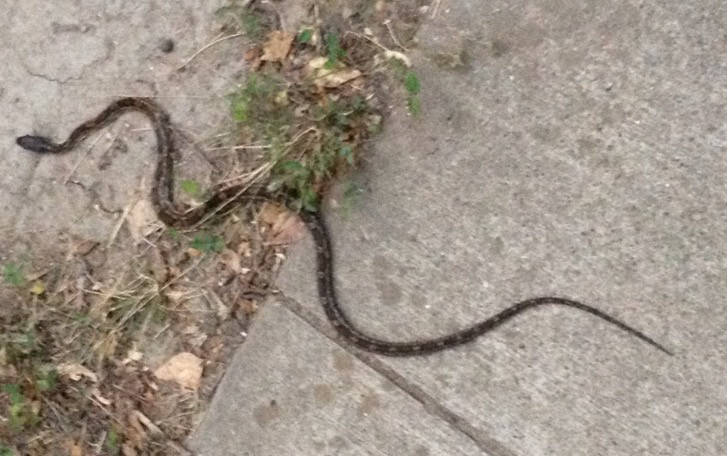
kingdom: Animalia
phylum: Chordata
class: Squamata
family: Colubridae
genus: Pantherophis
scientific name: Pantherophis obsoletus
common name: Black rat snake
